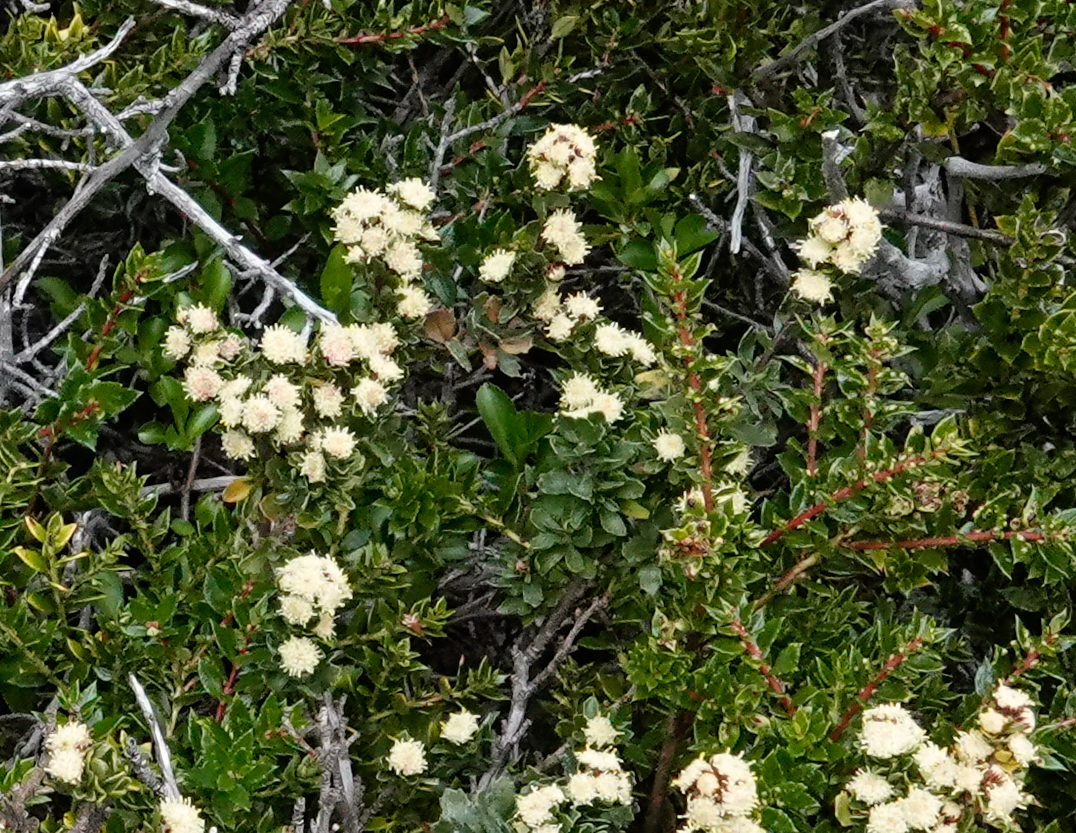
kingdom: Plantae
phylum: Tracheophyta
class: Magnoliopsida
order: Asterales
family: Asteraceae
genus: Baccharis
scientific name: Baccharis patagonica
